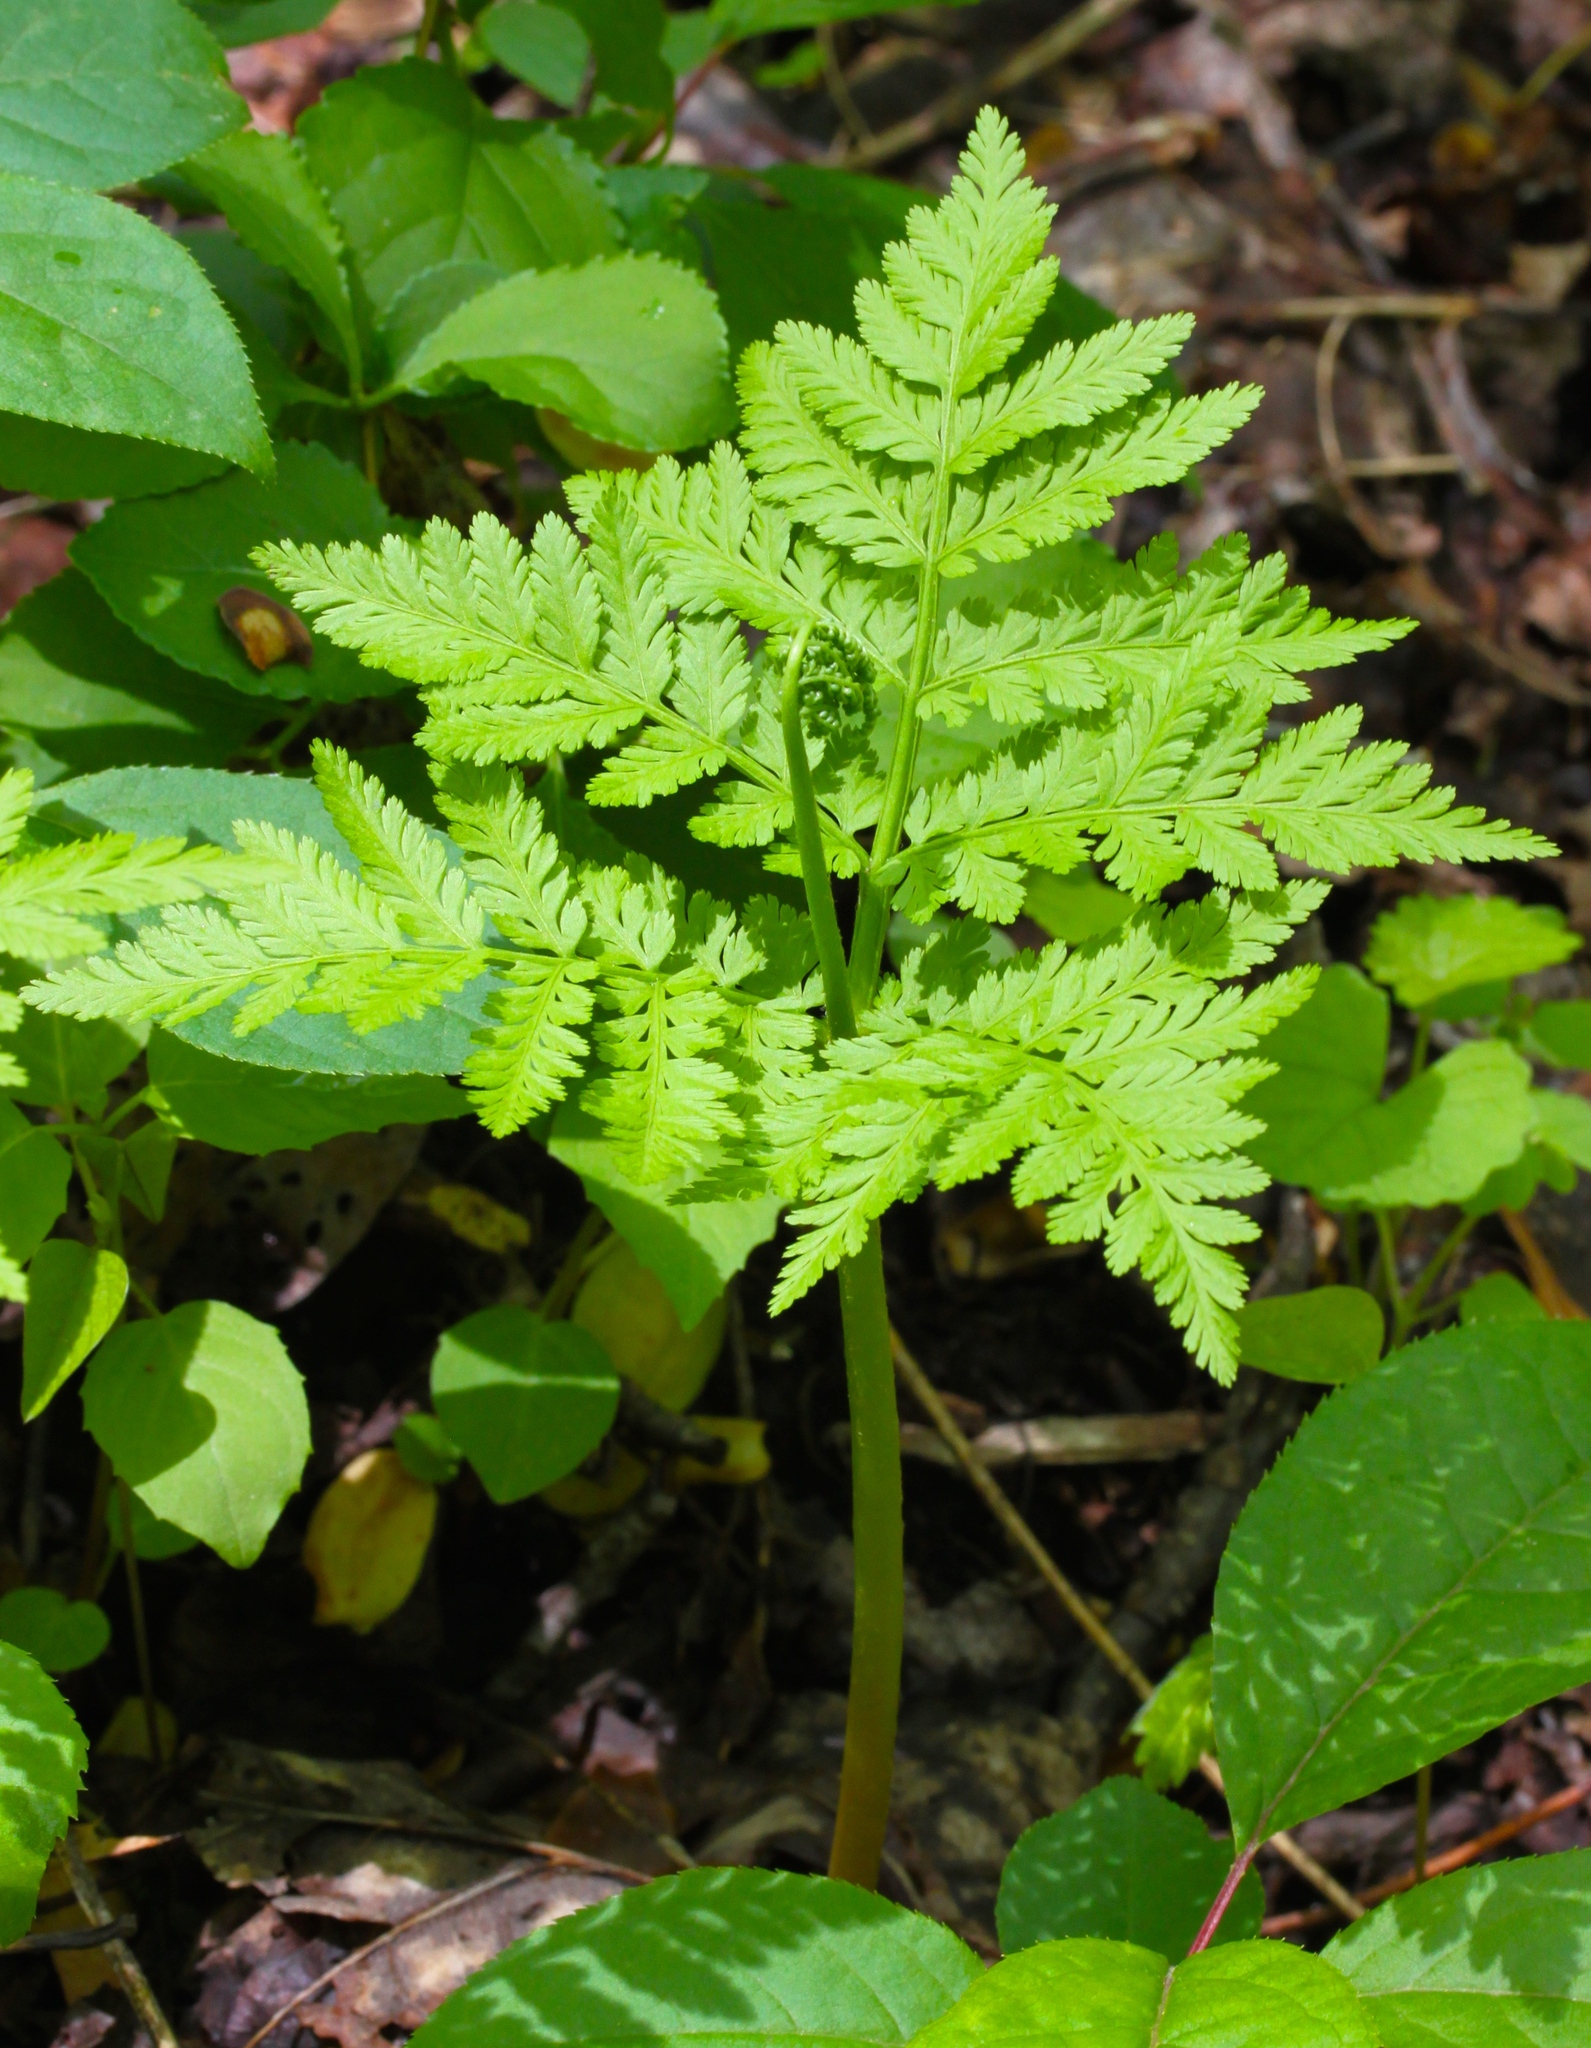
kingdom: Plantae
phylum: Tracheophyta
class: Polypodiopsida
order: Ophioglossales
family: Ophioglossaceae
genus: Botrypus
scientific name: Botrypus virginianus
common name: Common grapefern
